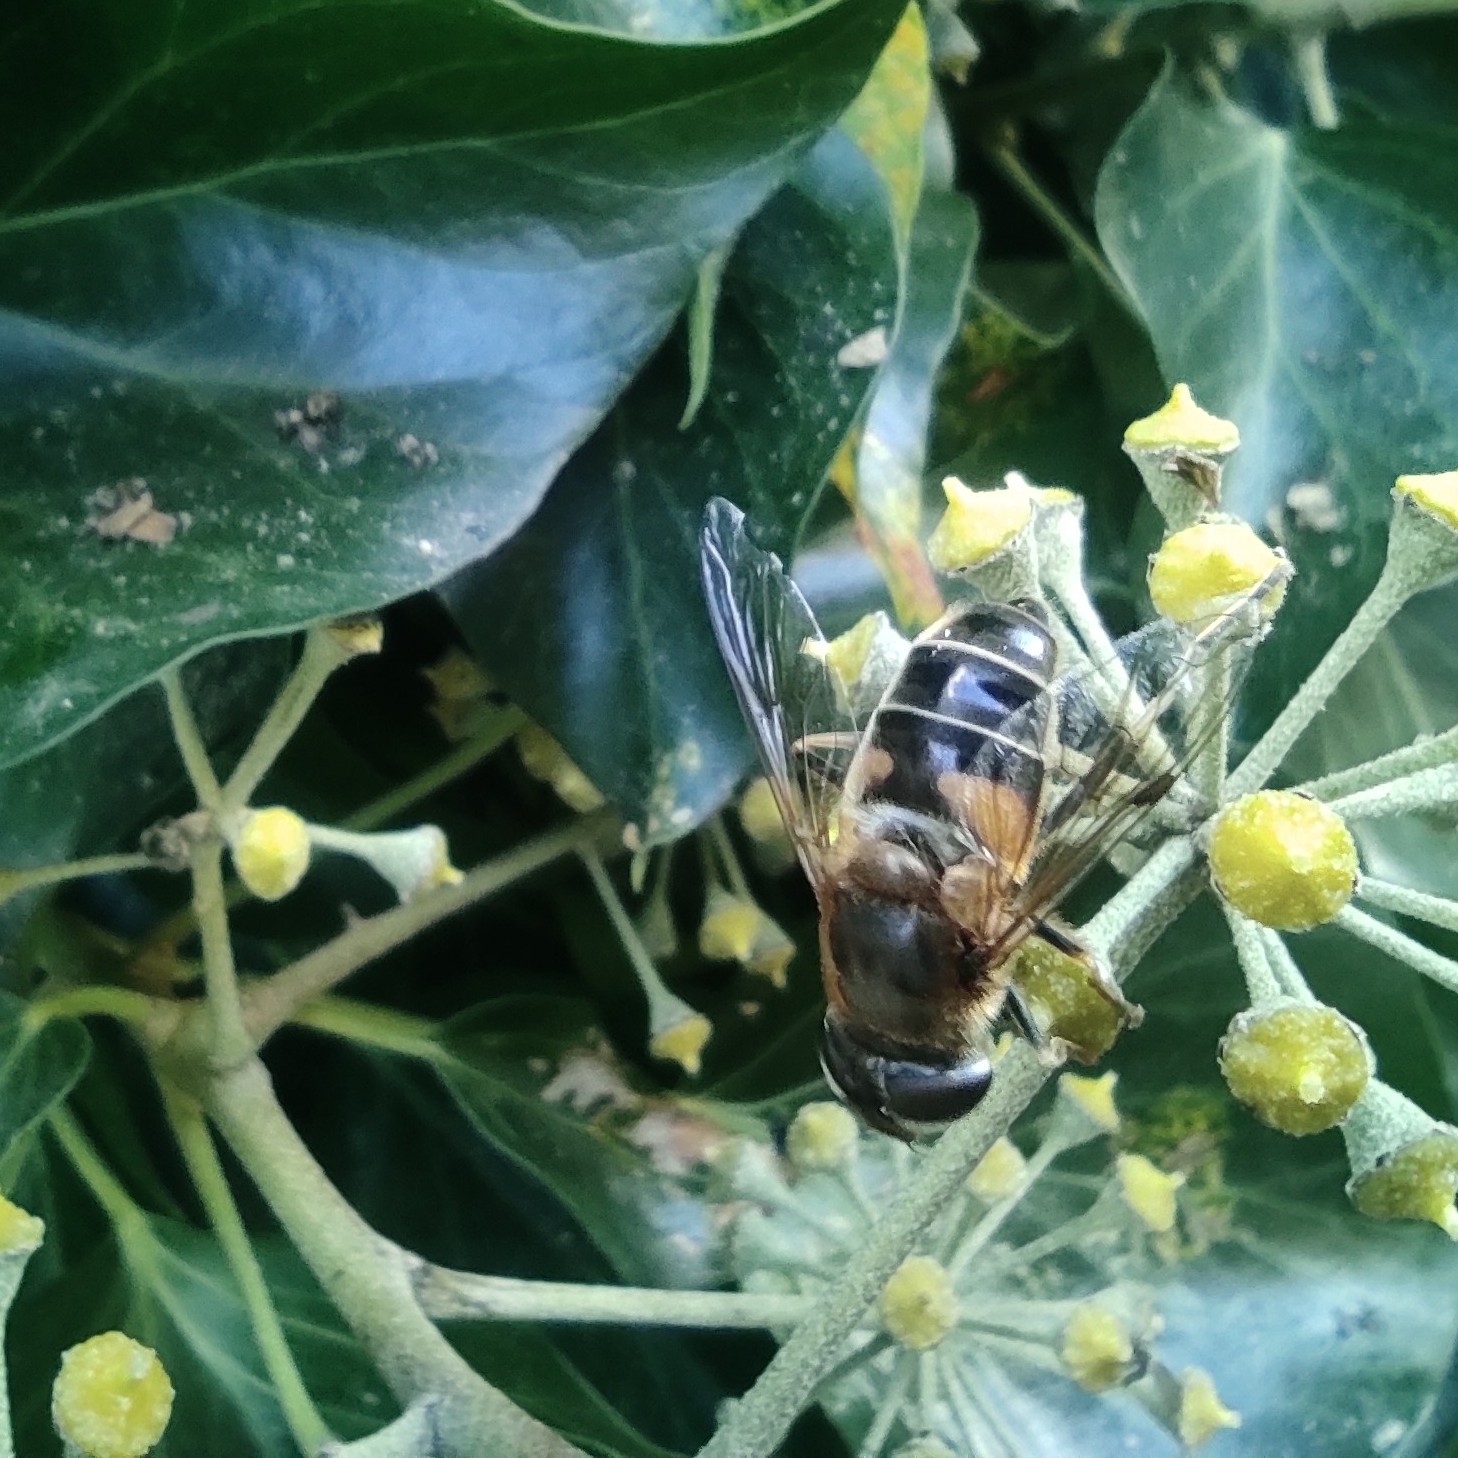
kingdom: Animalia
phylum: Arthropoda
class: Insecta
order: Diptera
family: Syrphidae
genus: Eristalis
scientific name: Eristalis pertinax
